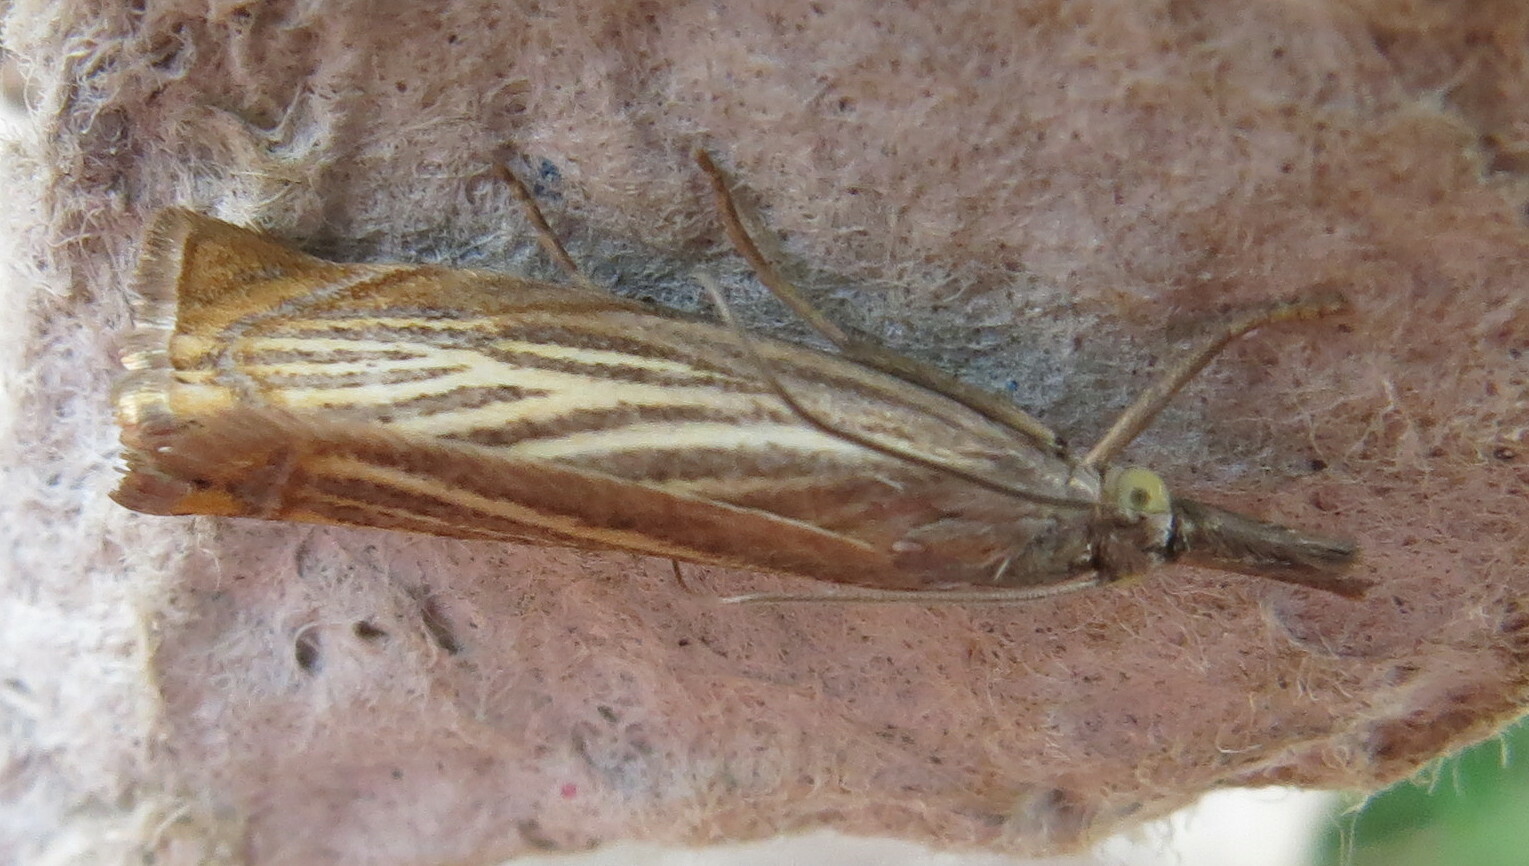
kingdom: Animalia
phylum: Arthropoda
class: Insecta
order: Lepidoptera
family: Crambidae
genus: Chrysoteuchia
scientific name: Chrysoteuchia culmella
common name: Garden grass-veneer
